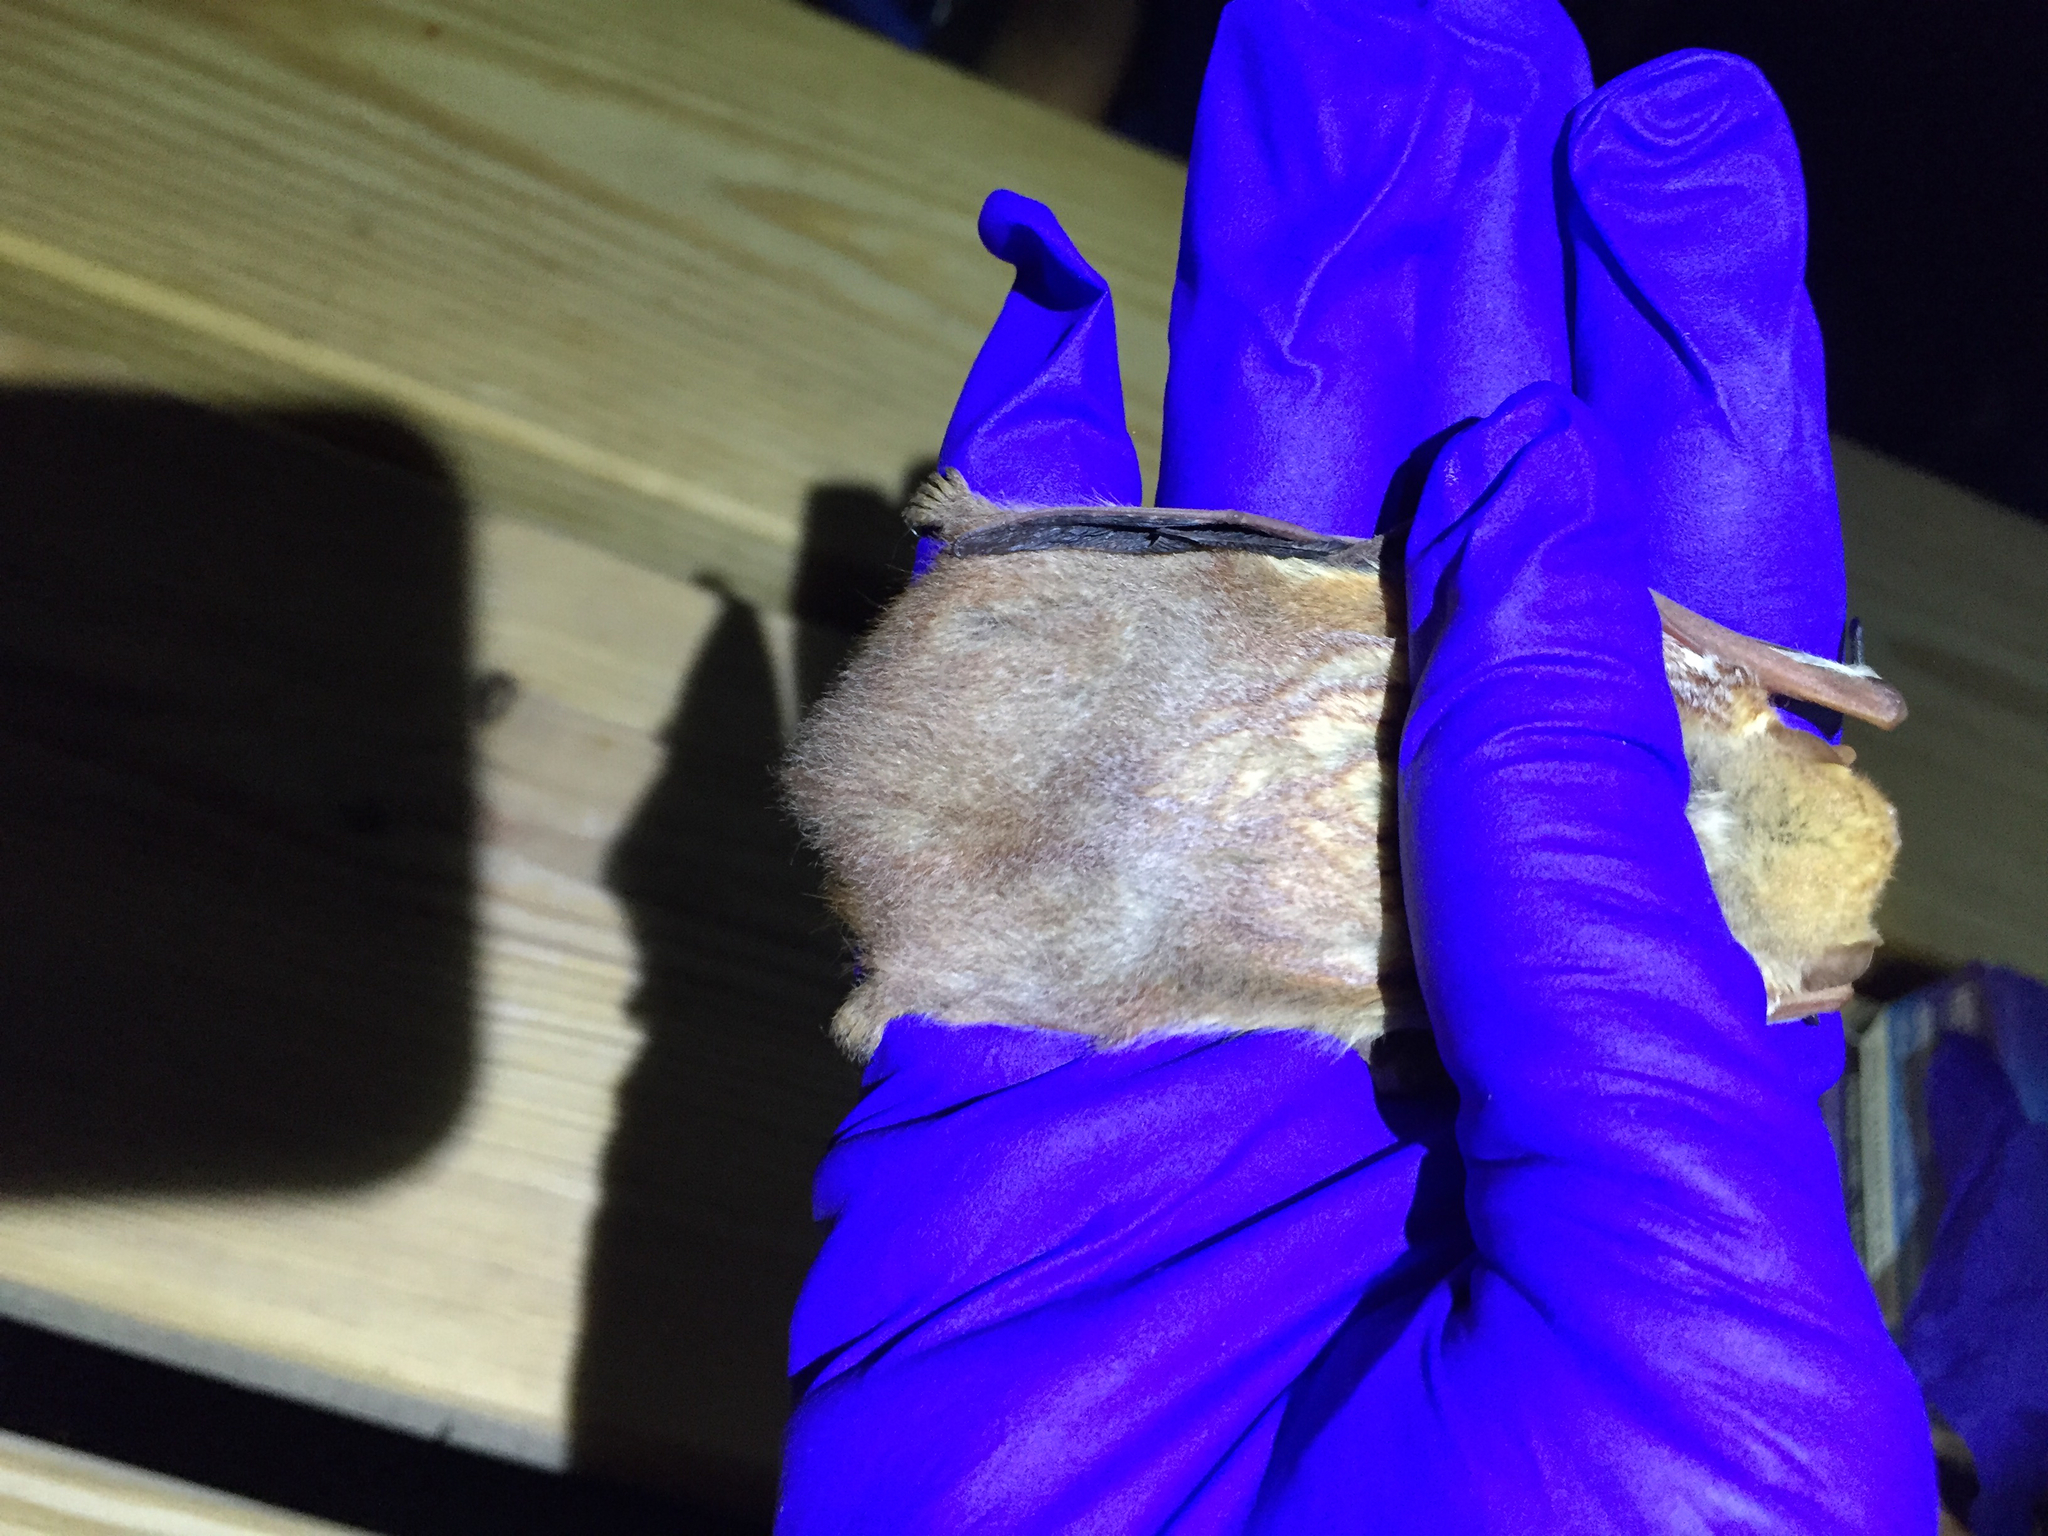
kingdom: Animalia
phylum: Chordata
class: Mammalia
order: Chiroptera
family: Vespertilionidae
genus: Lasiurus
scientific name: Lasiurus borealis
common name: Eastern red bat
